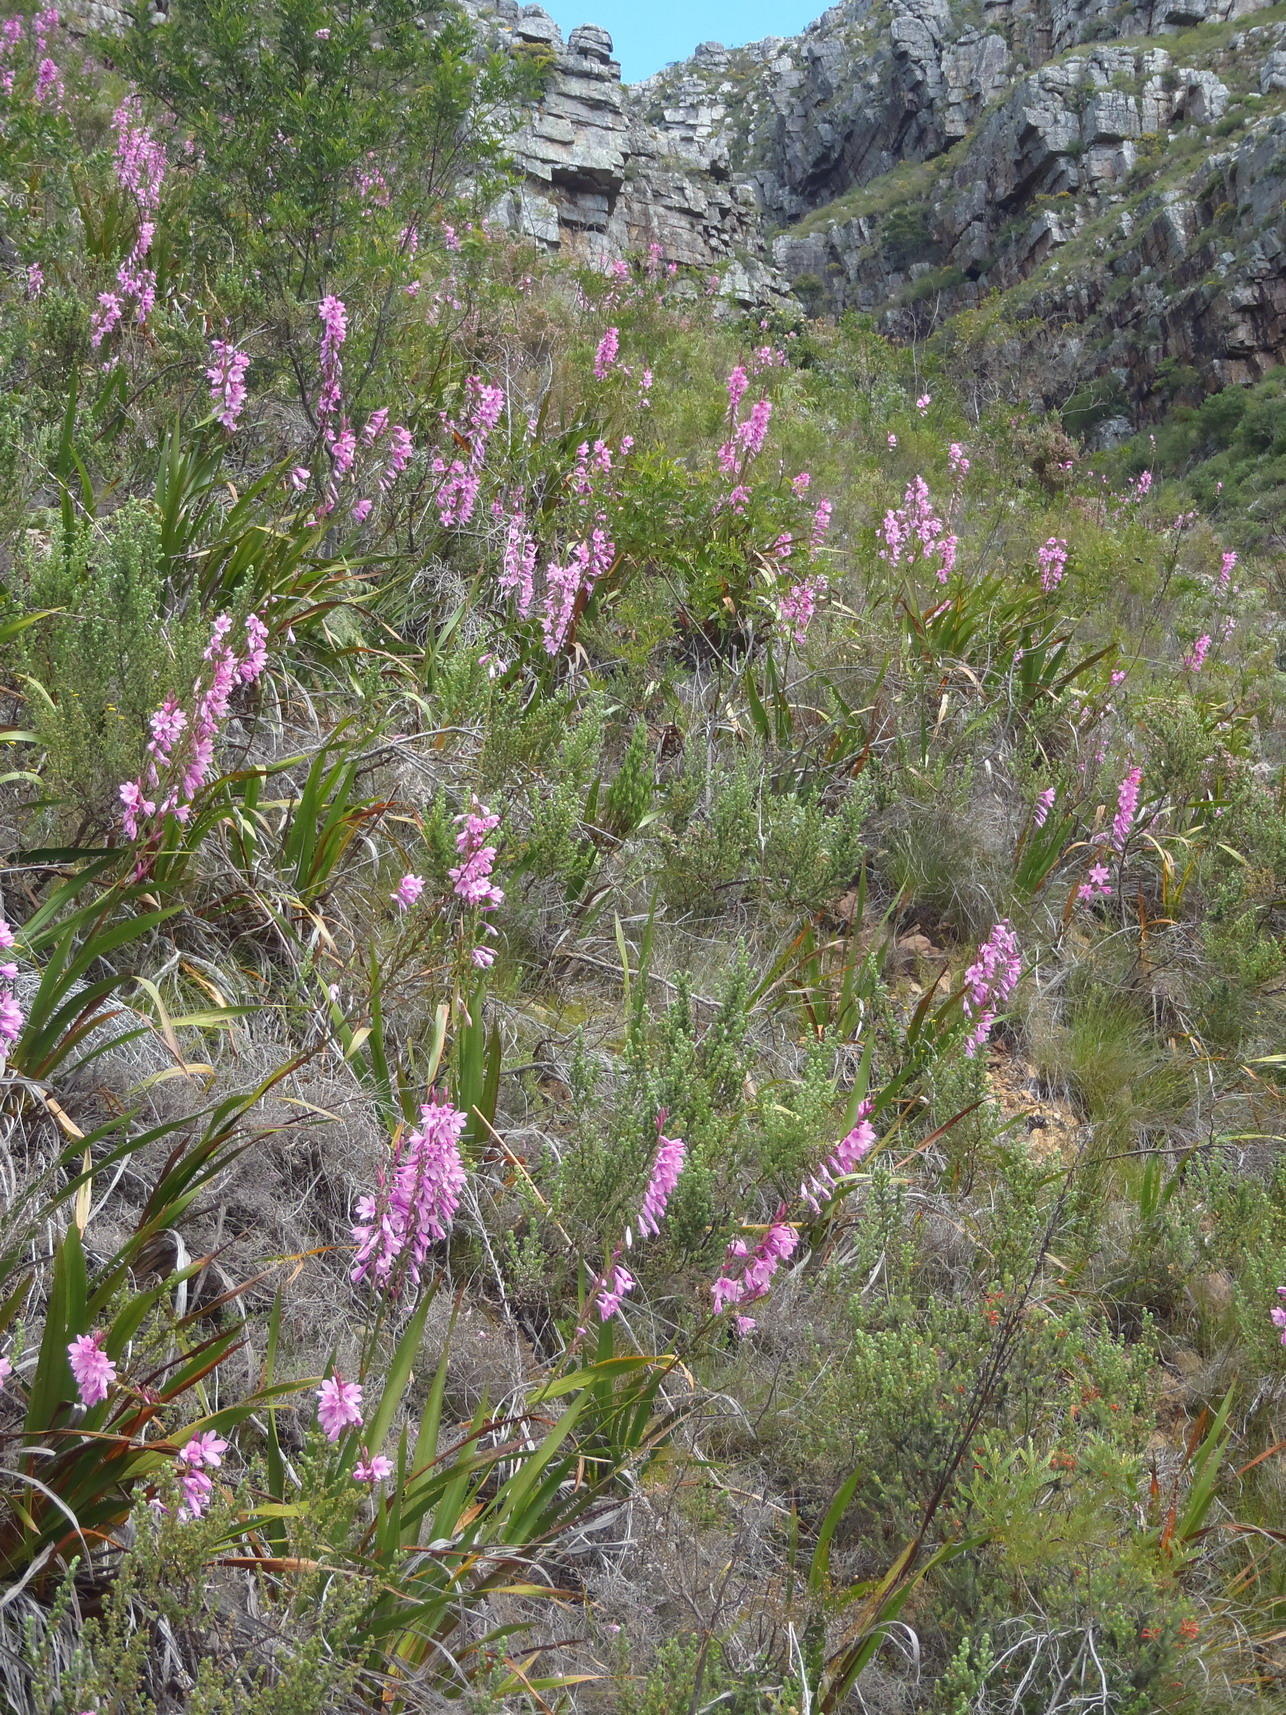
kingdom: Plantae
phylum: Tracheophyta
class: Liliopsida
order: Asparagales
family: Iridaceae
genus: Watsonia
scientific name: Watsonia borbonica
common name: Bugle-lily
